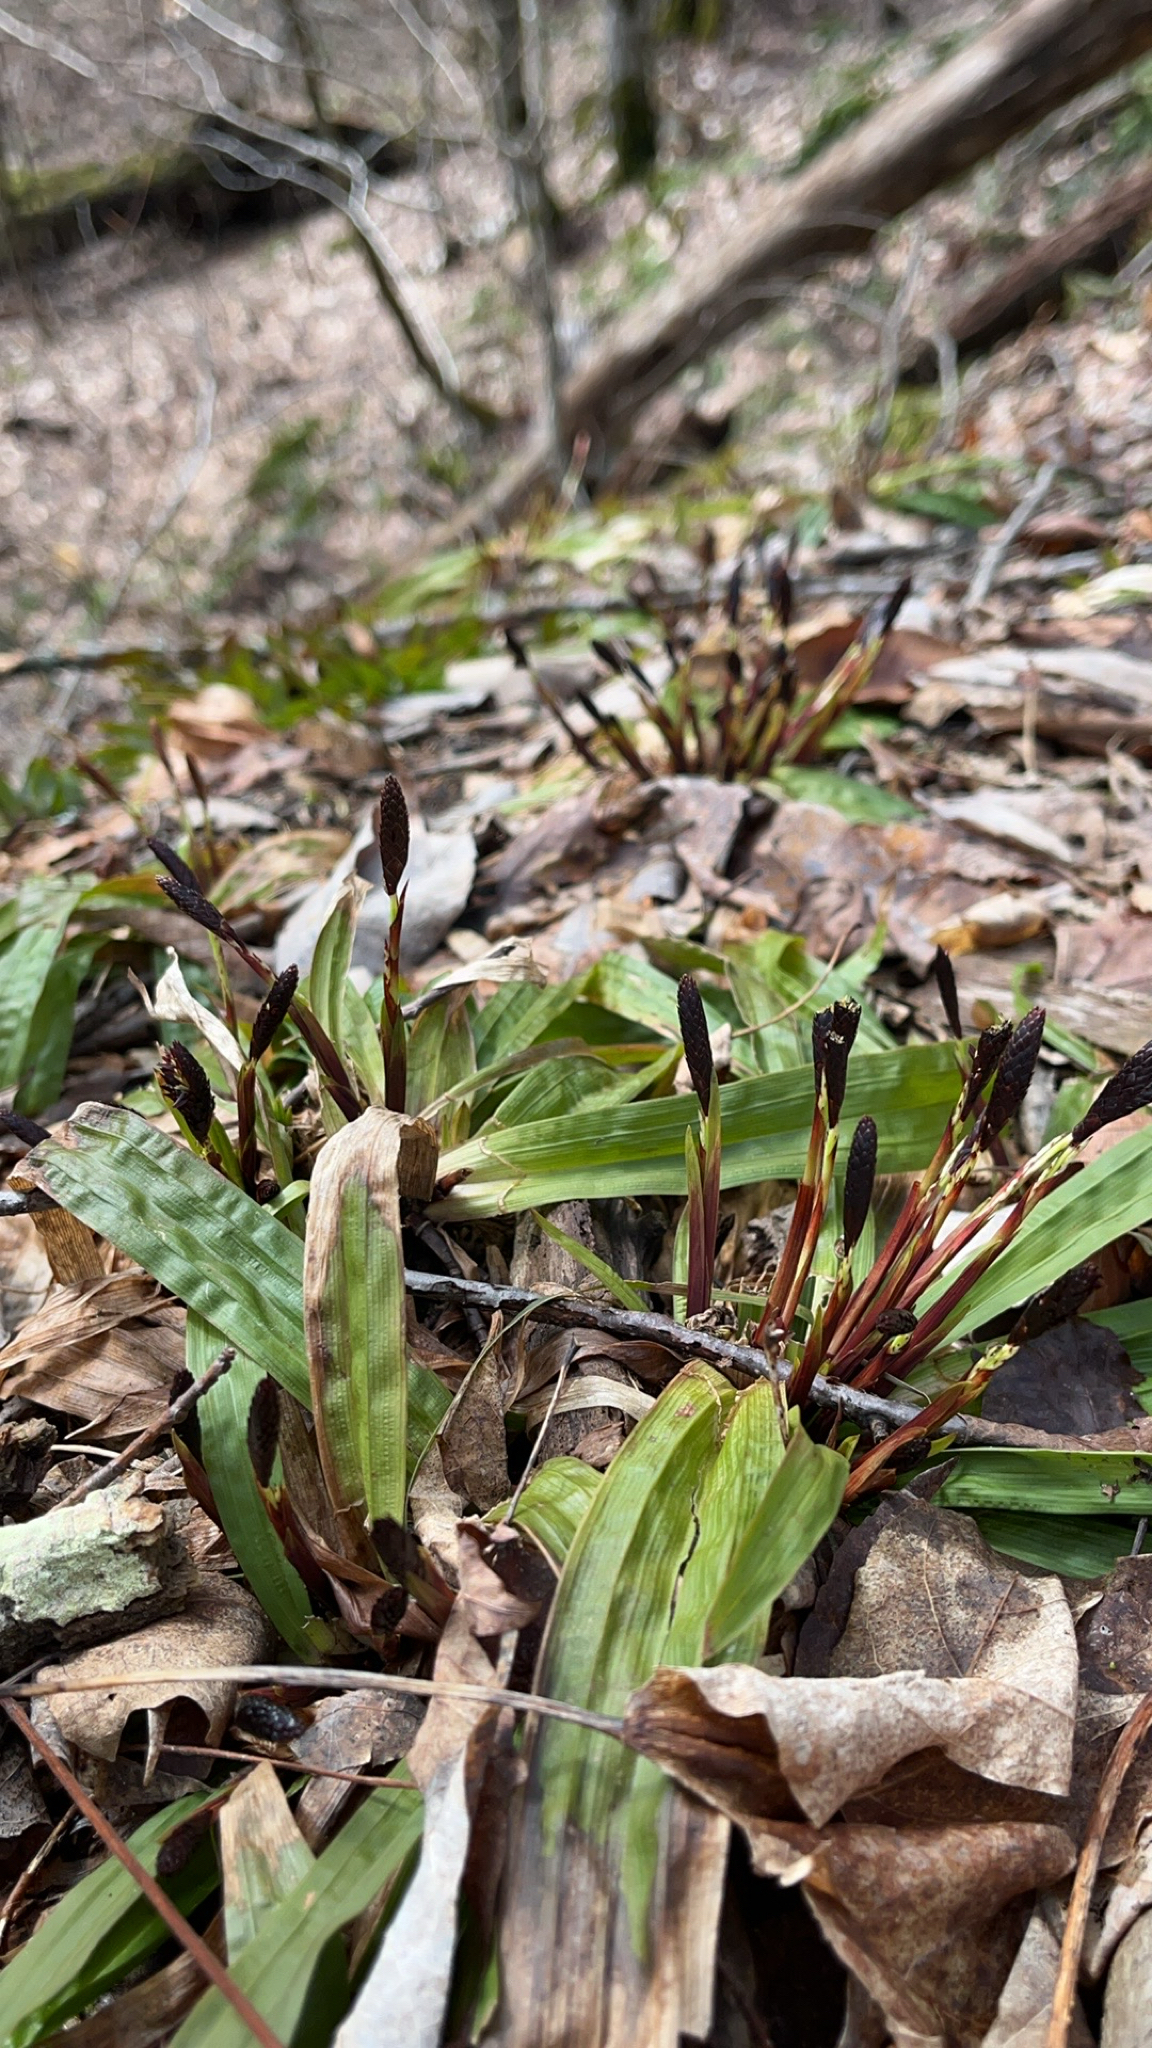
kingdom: Plantae
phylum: Tracheophyta
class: Liliopsida
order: Poales
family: Cyperaceae
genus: Carex
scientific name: Carex plantaginea
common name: Plantain-leaved sedge
